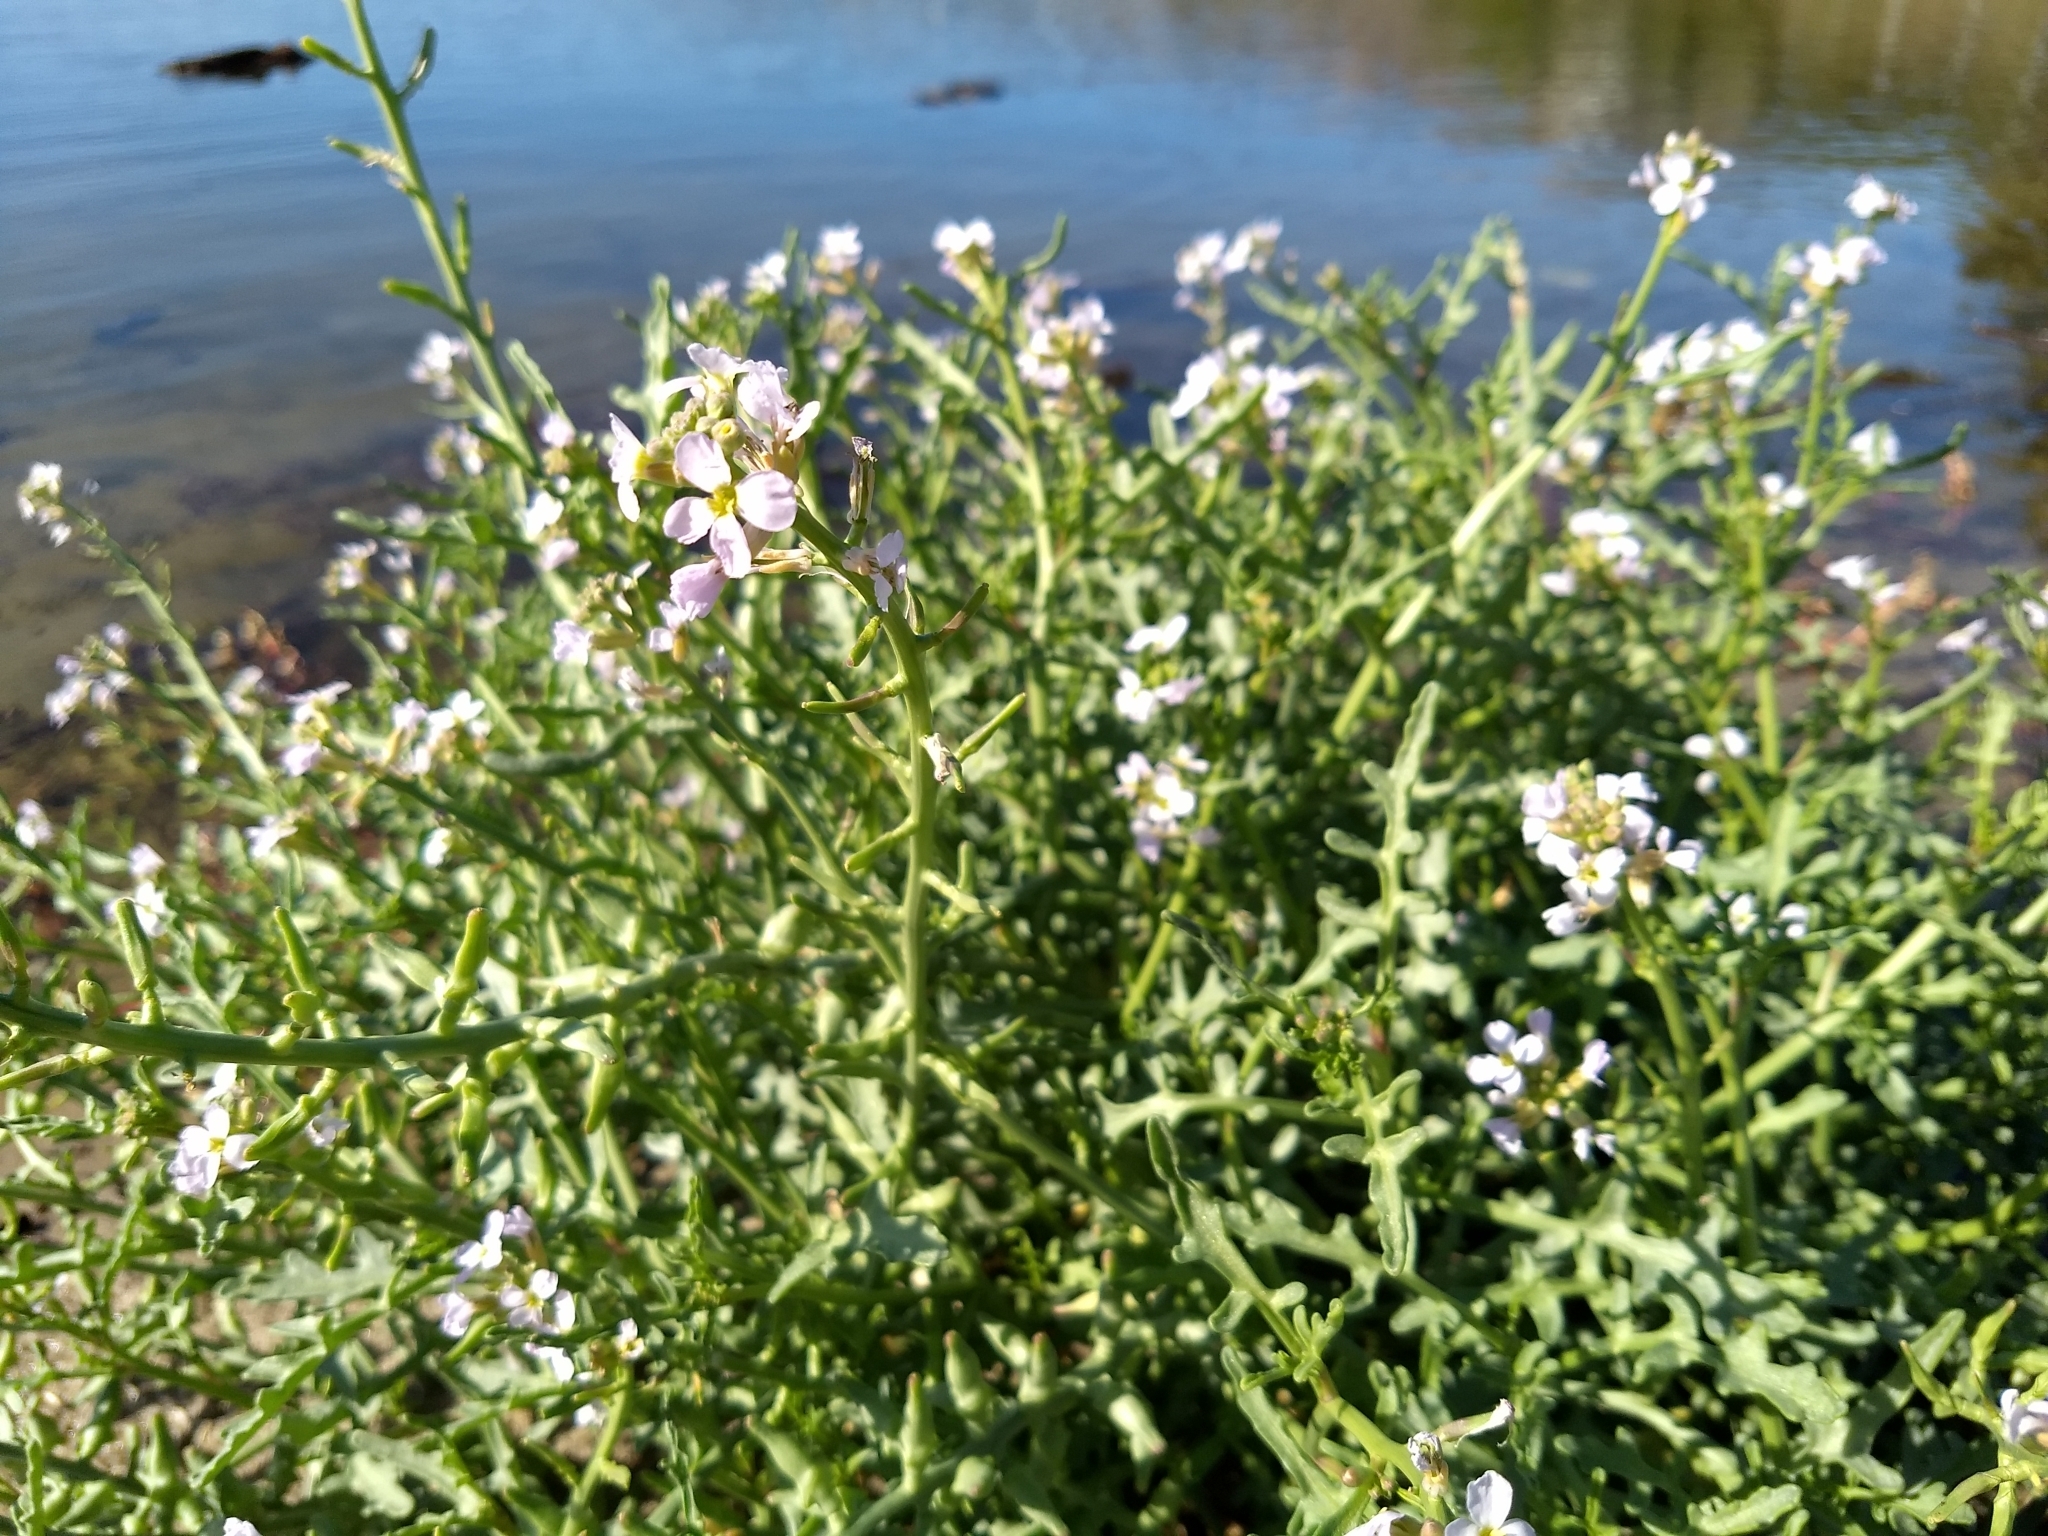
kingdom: Plantae
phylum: Tracheophyta
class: Magnoliopsida
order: Brassicales
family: Brassicaceae
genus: Cakile
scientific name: Cakile maritima
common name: Sea rocket
